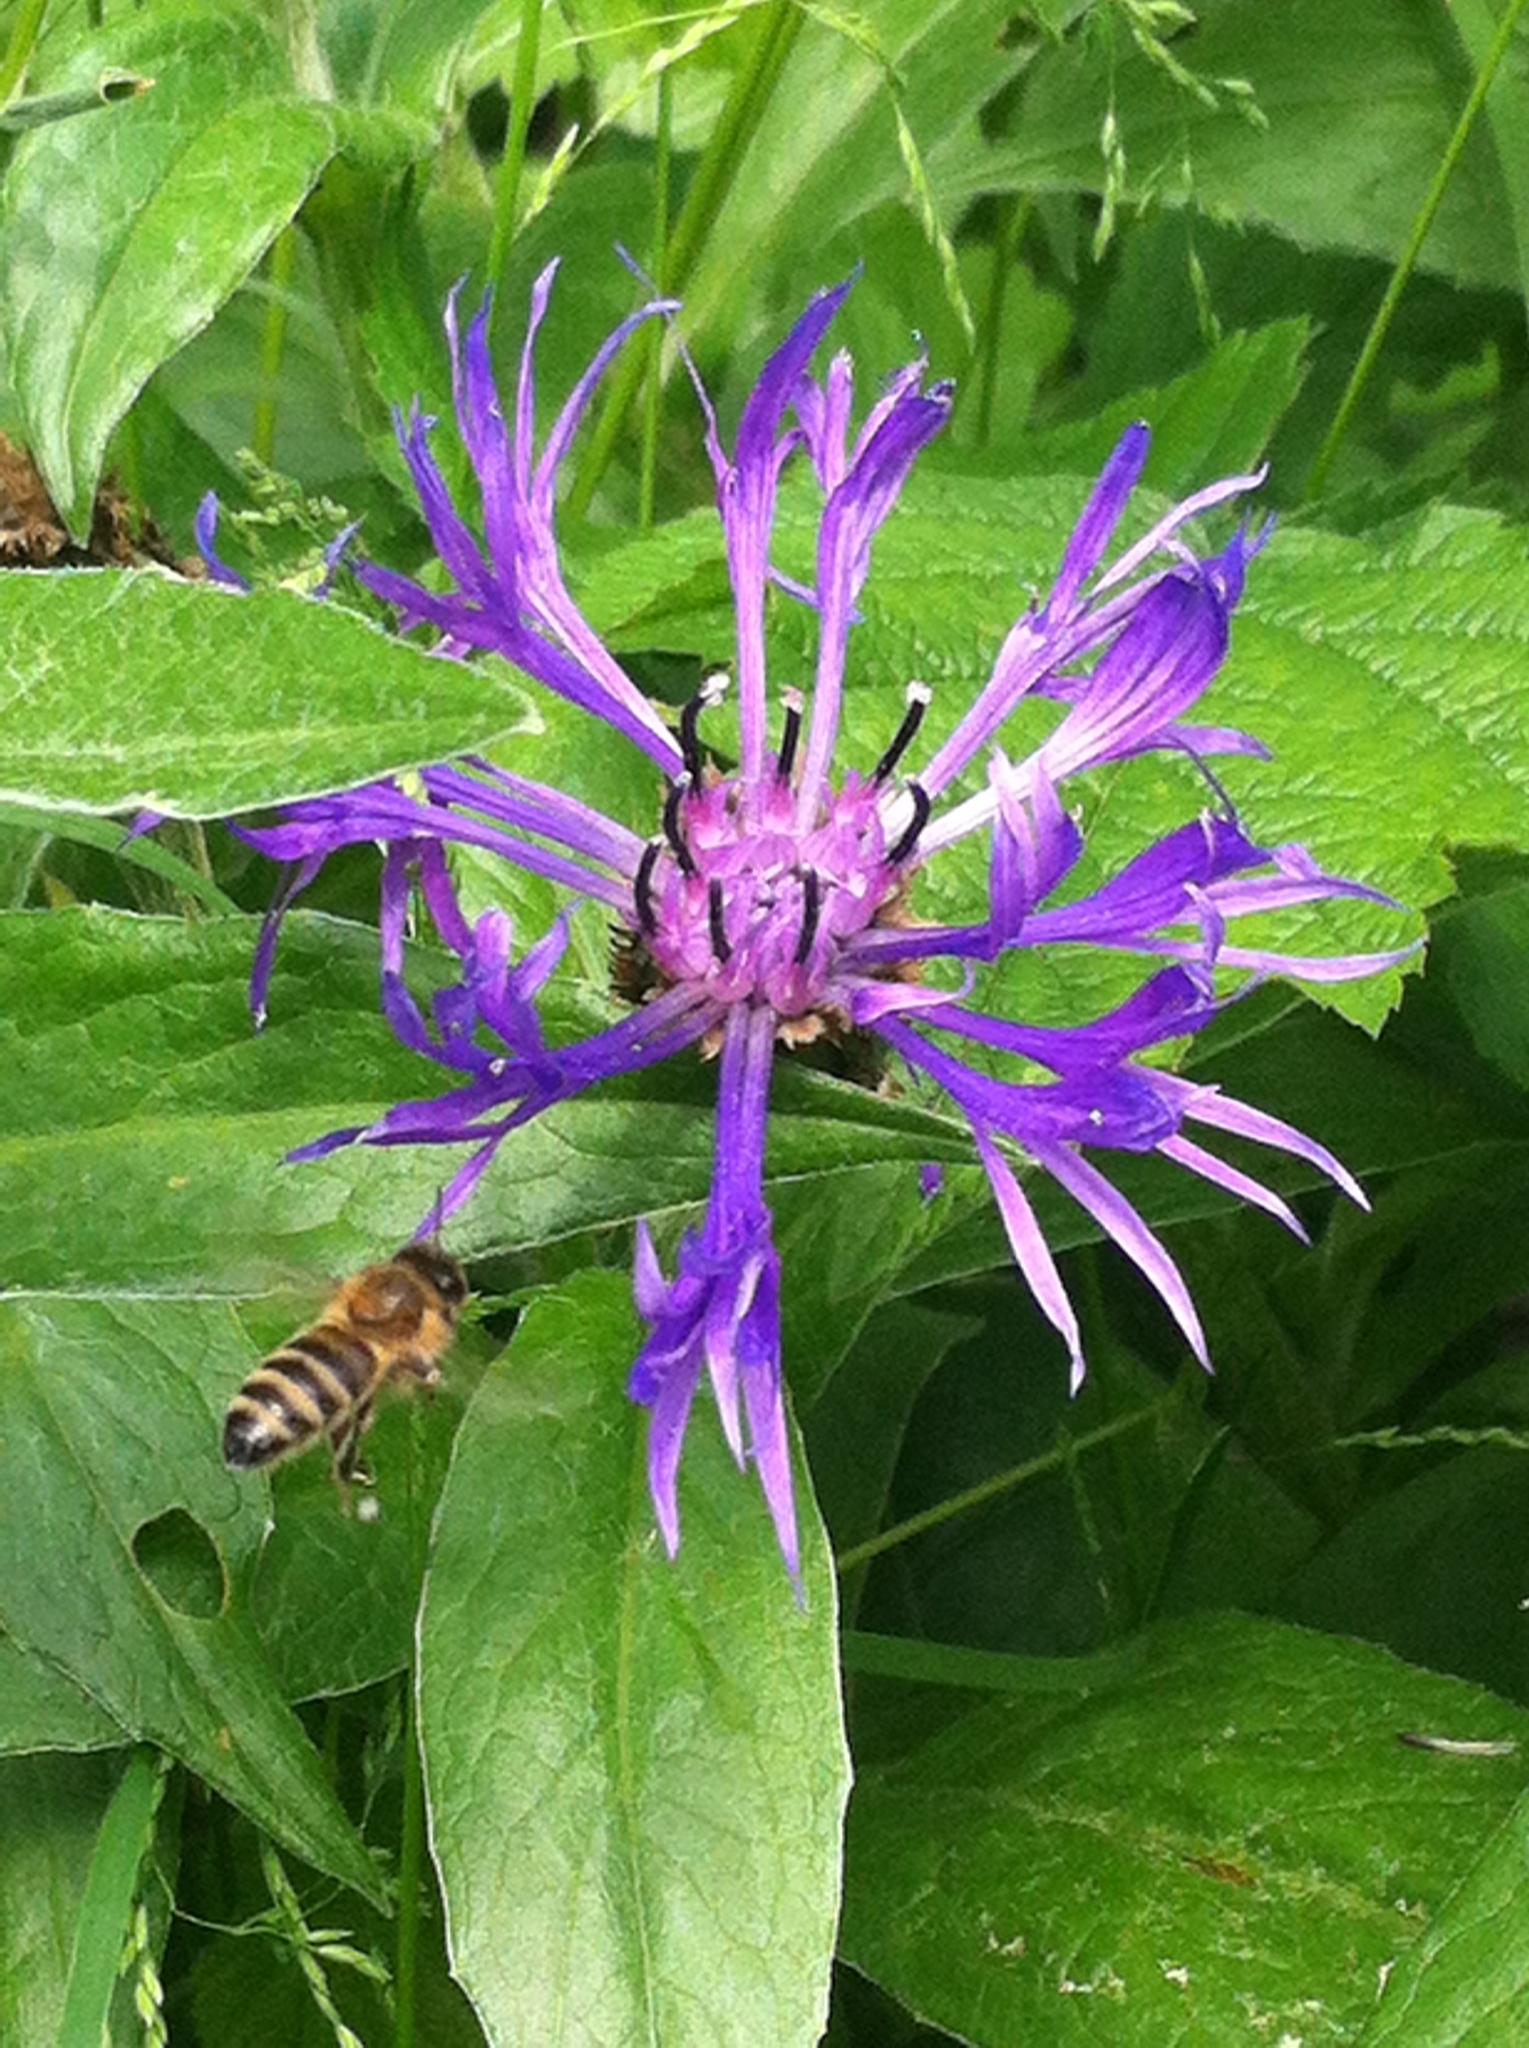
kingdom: Plantae
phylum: Tracheophyta
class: Magnoliopsida
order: Asterales
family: Asteraceae
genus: Centaurea
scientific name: Centaurea montana
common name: Perennial cornflower
